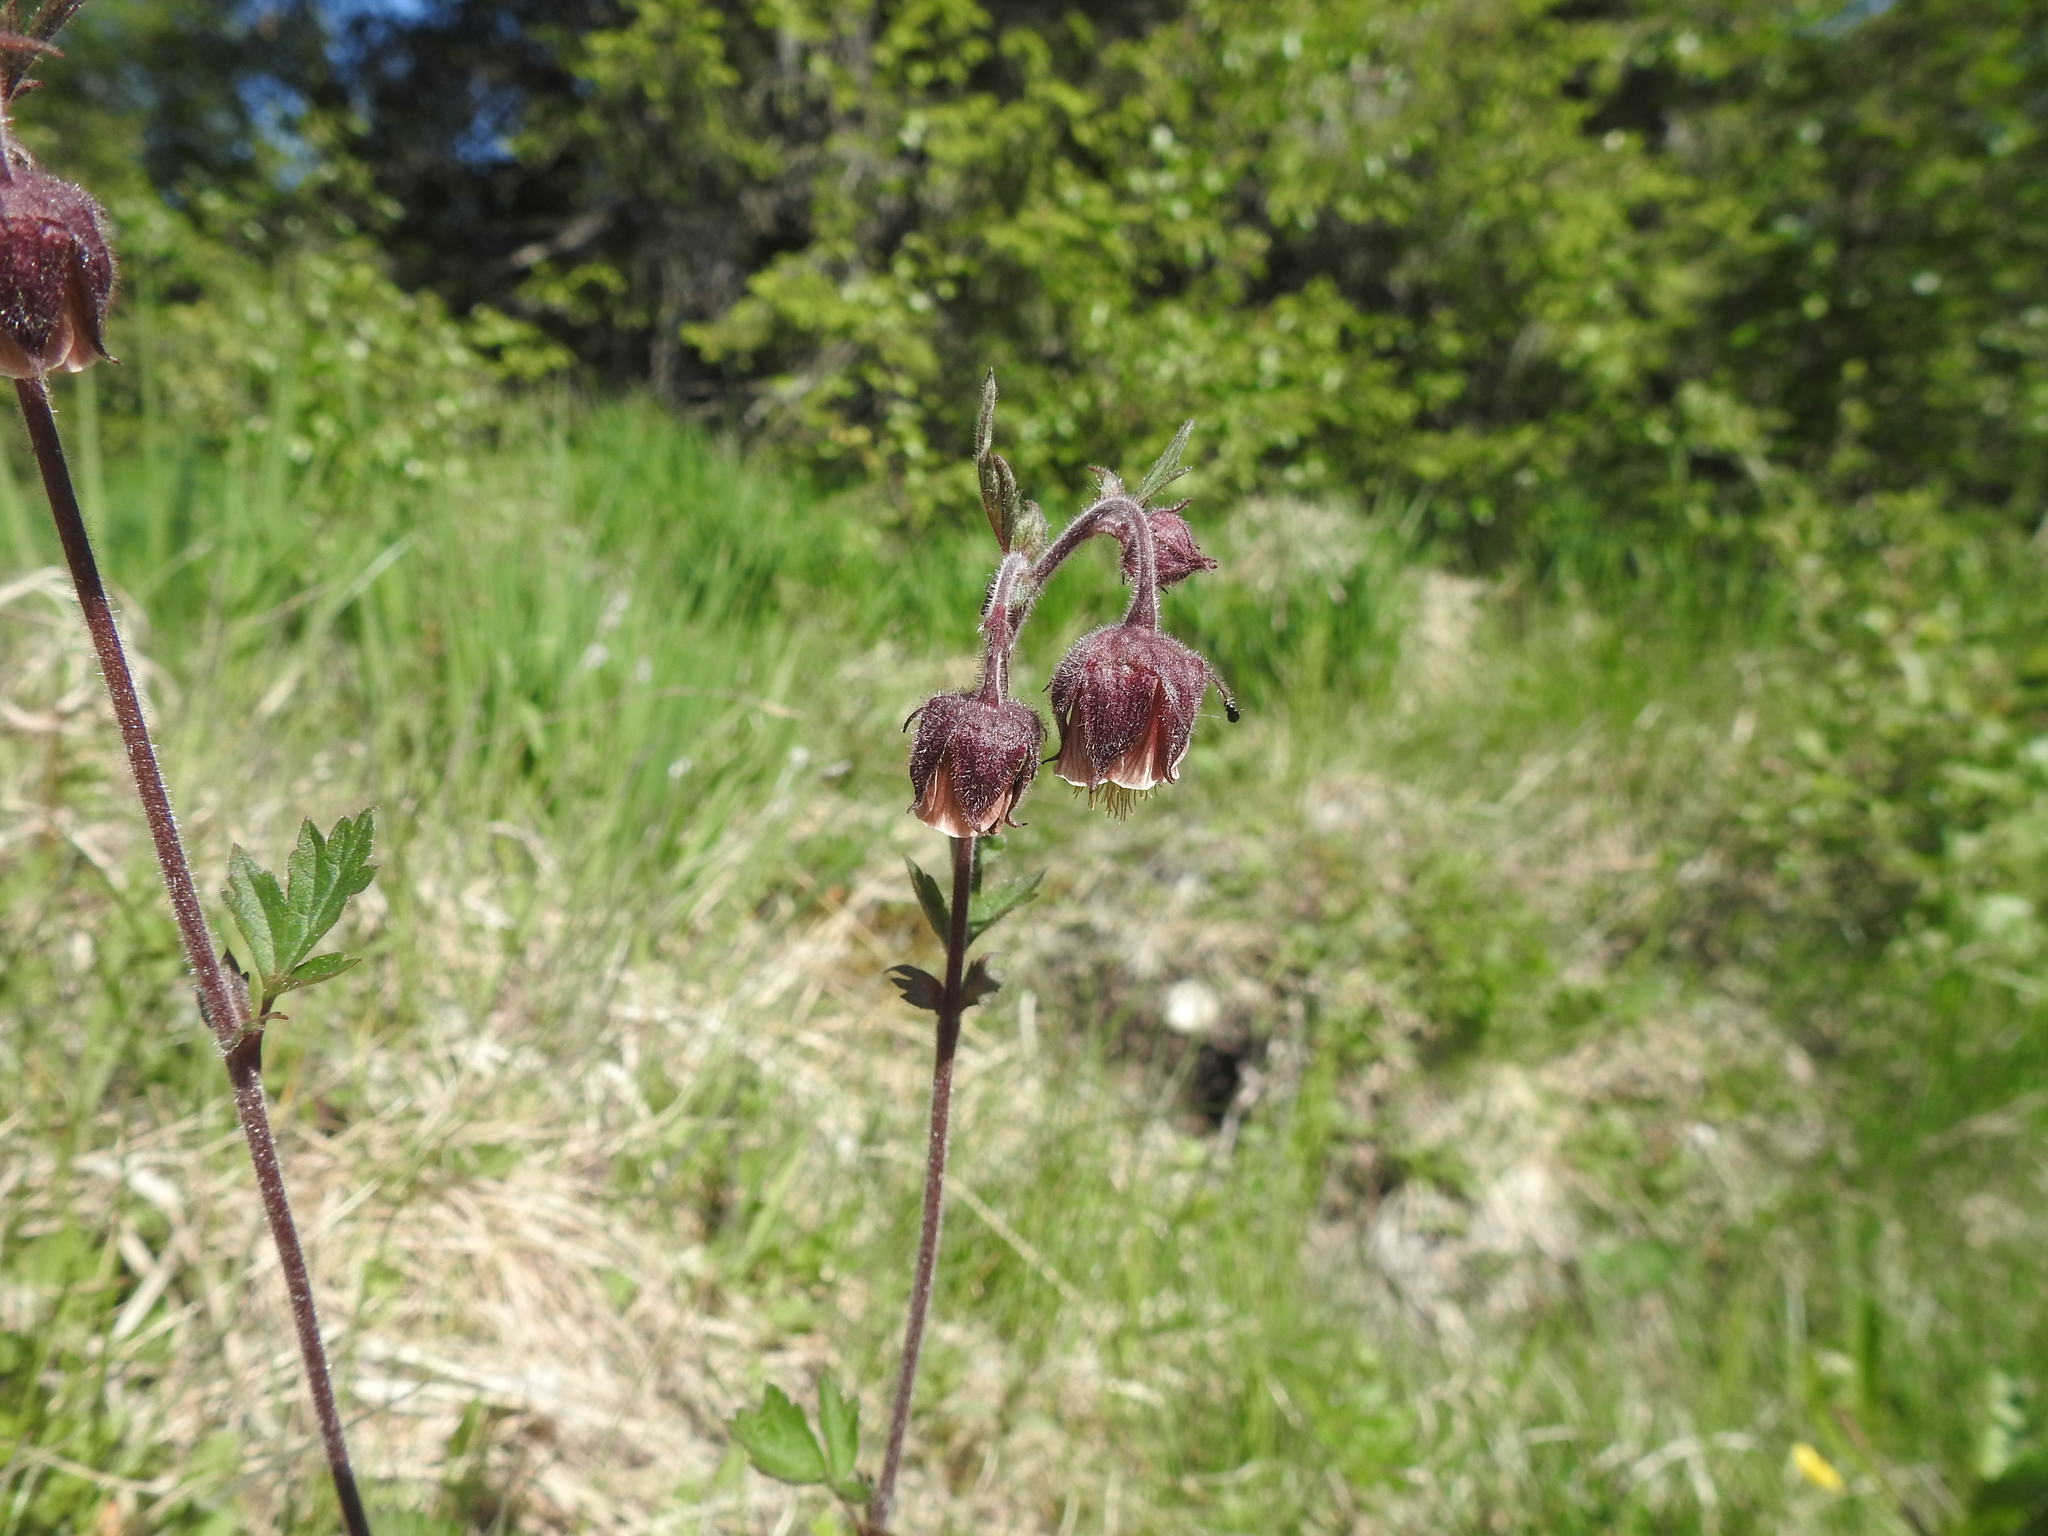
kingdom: Plantae
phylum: Tracheophyta
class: Magnoliopsida
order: Rosales
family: Rosaceae
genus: Geum
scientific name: Geum rivale
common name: Water avens
